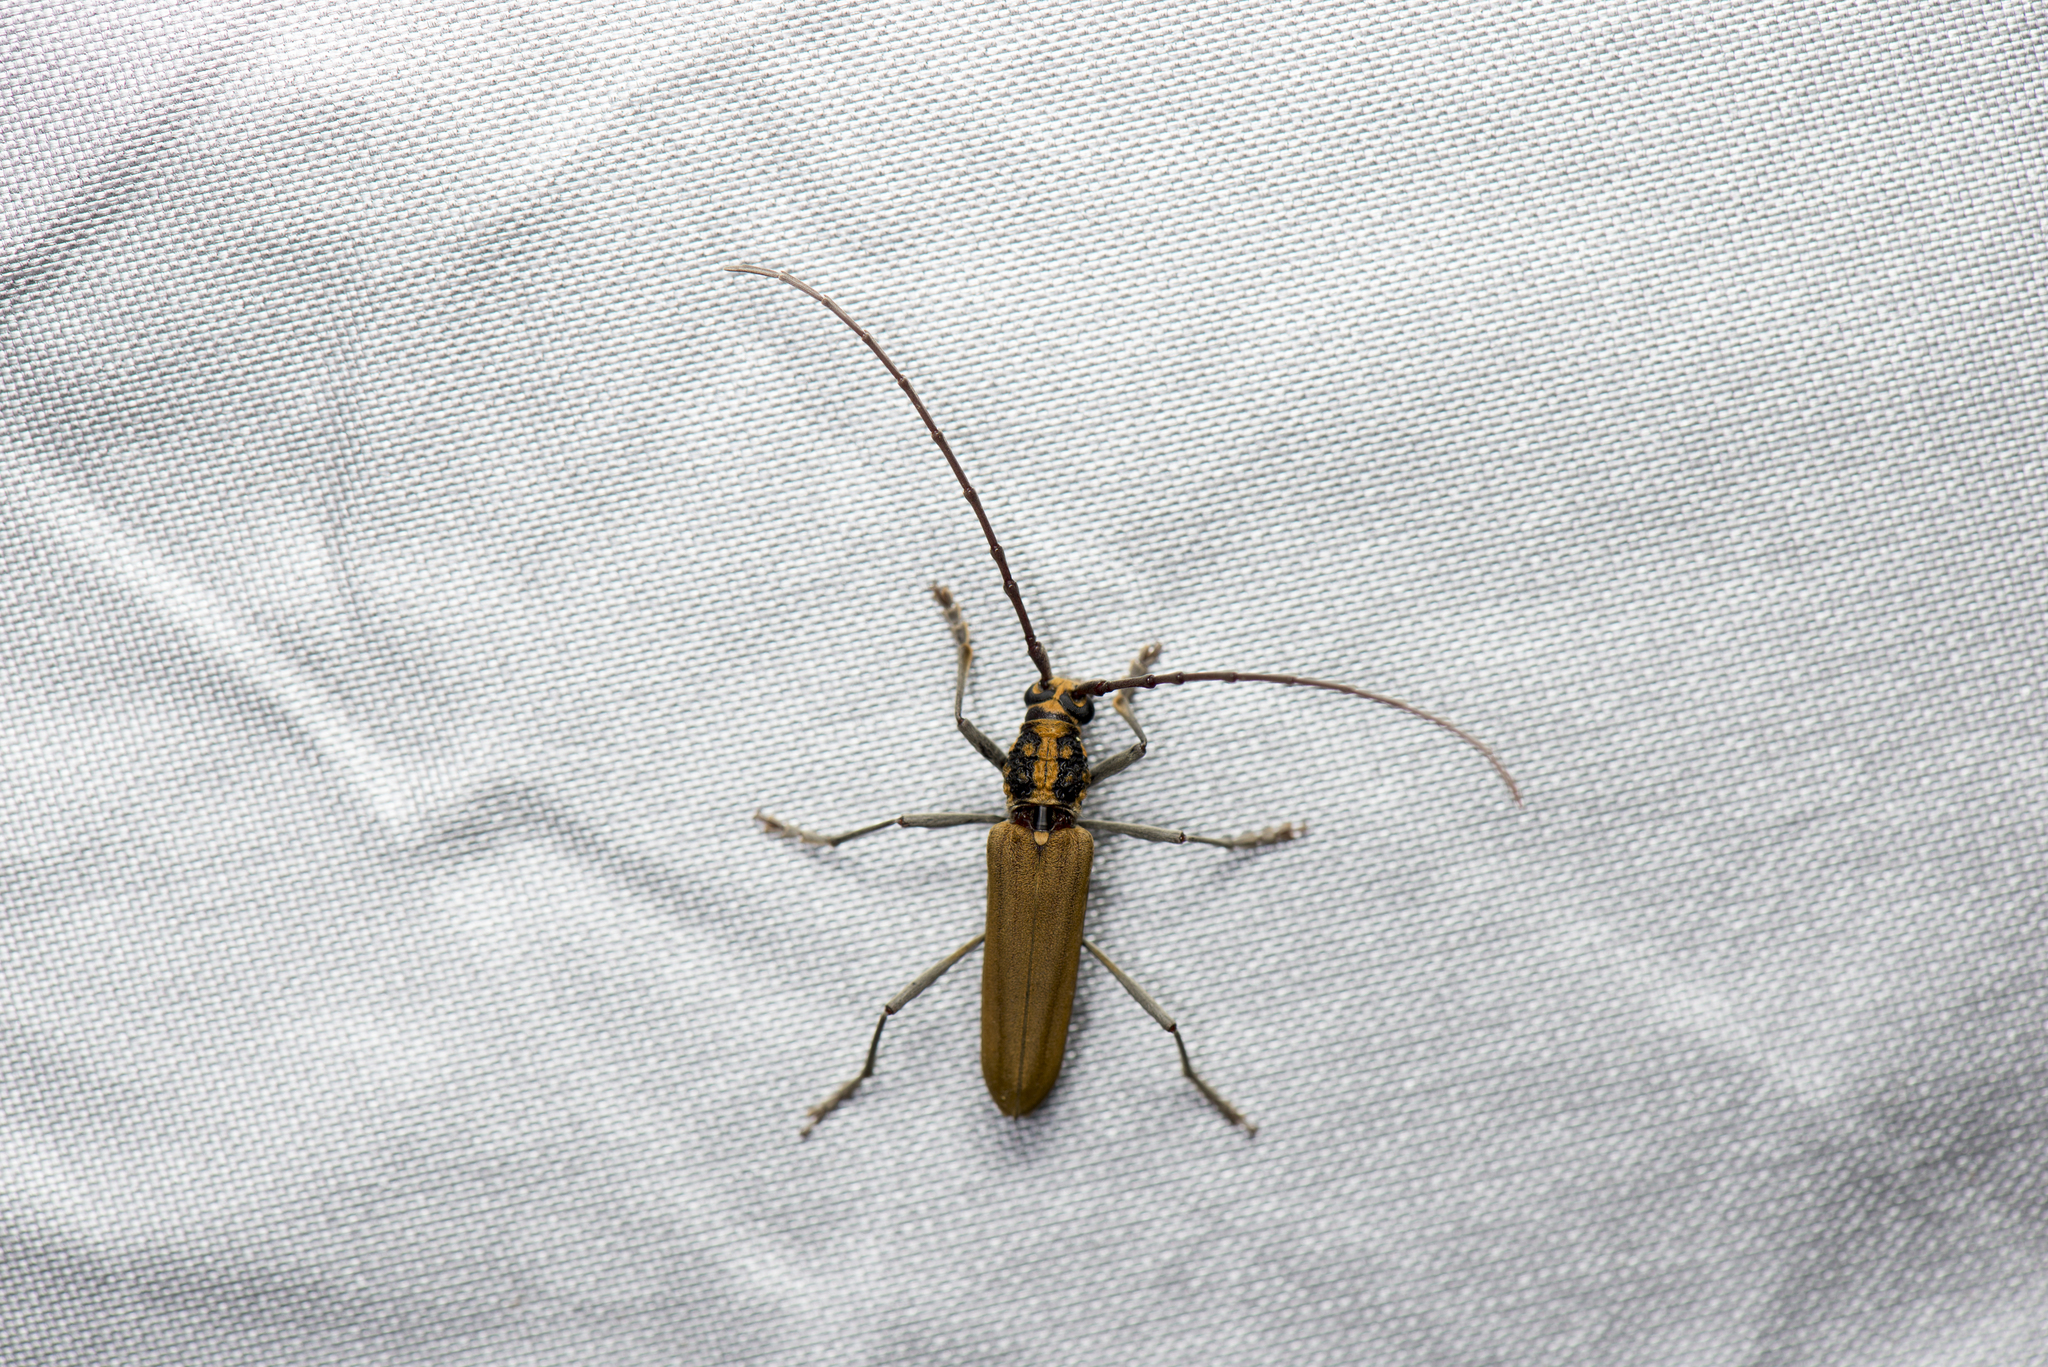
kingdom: Animalia
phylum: Arthropoda
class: Insecta
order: Coleoptera
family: Cerambycidae
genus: Gibbocerambyx
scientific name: Gibbocerambyx maculicollis
